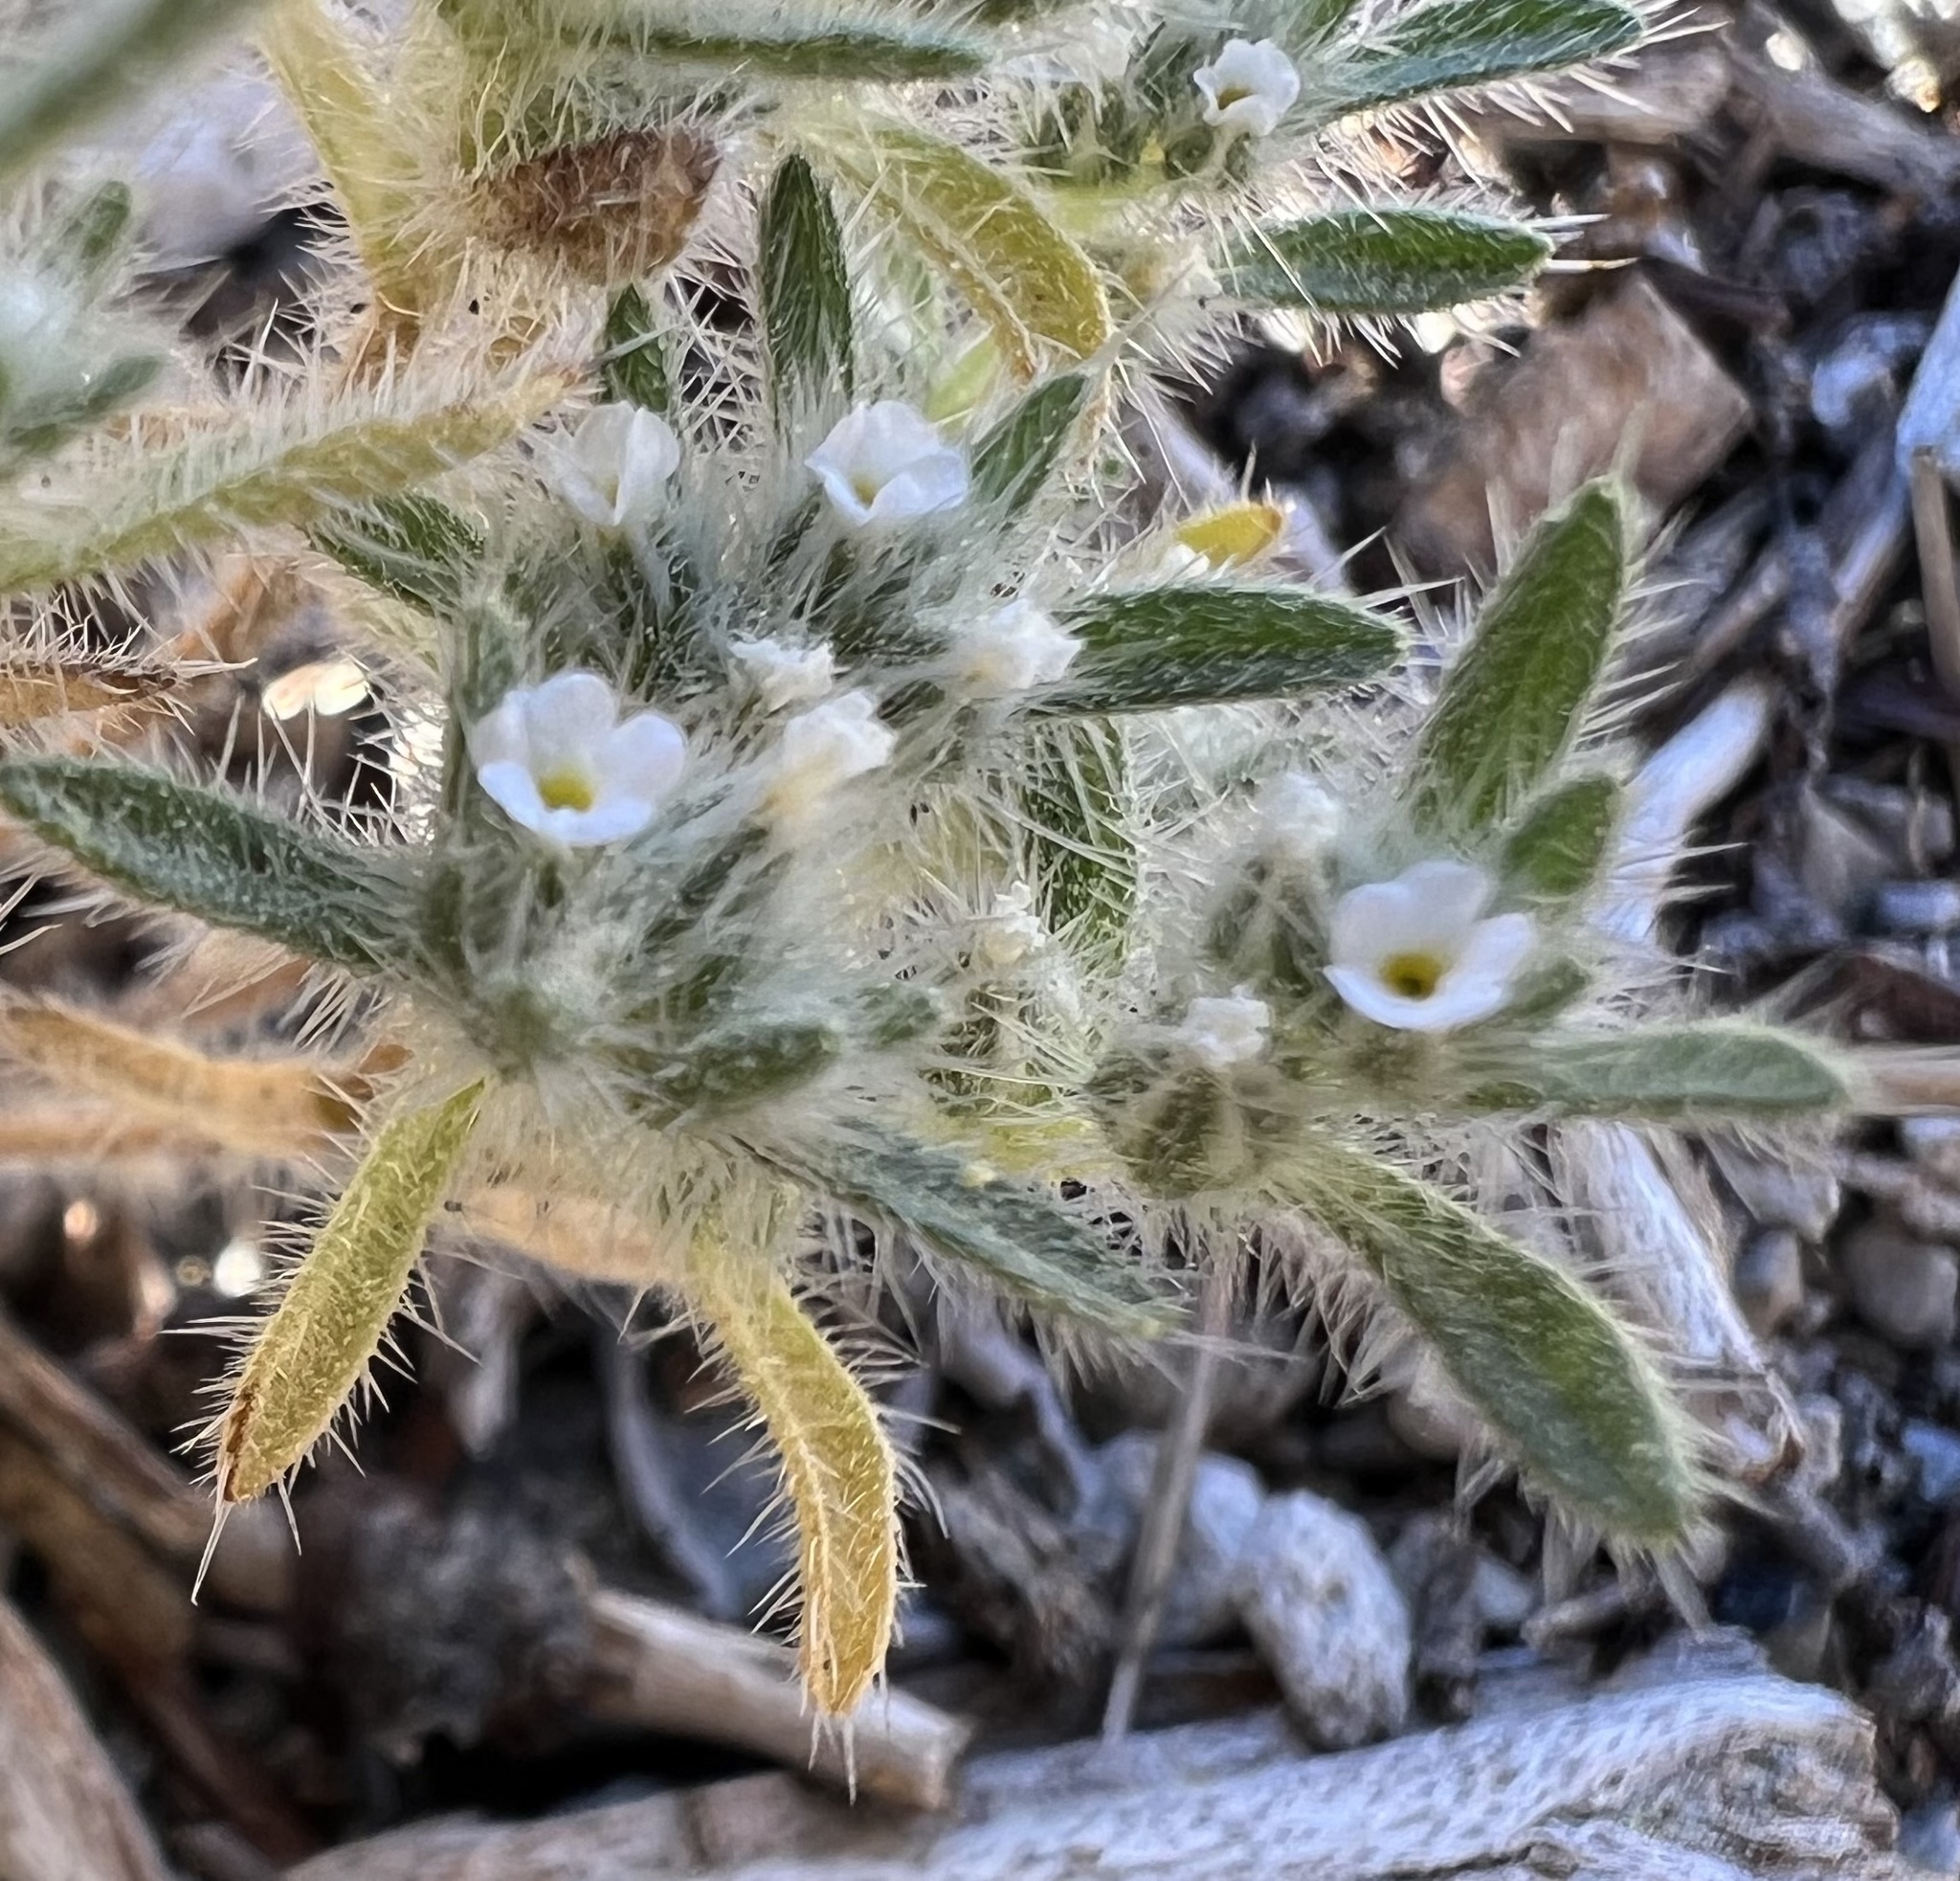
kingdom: Plantae
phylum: Tracheophyta
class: Magnoliopsida
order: Boraginales
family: Boraginaceae
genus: Greeneocharis
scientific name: Greeneocharis circumscissa
